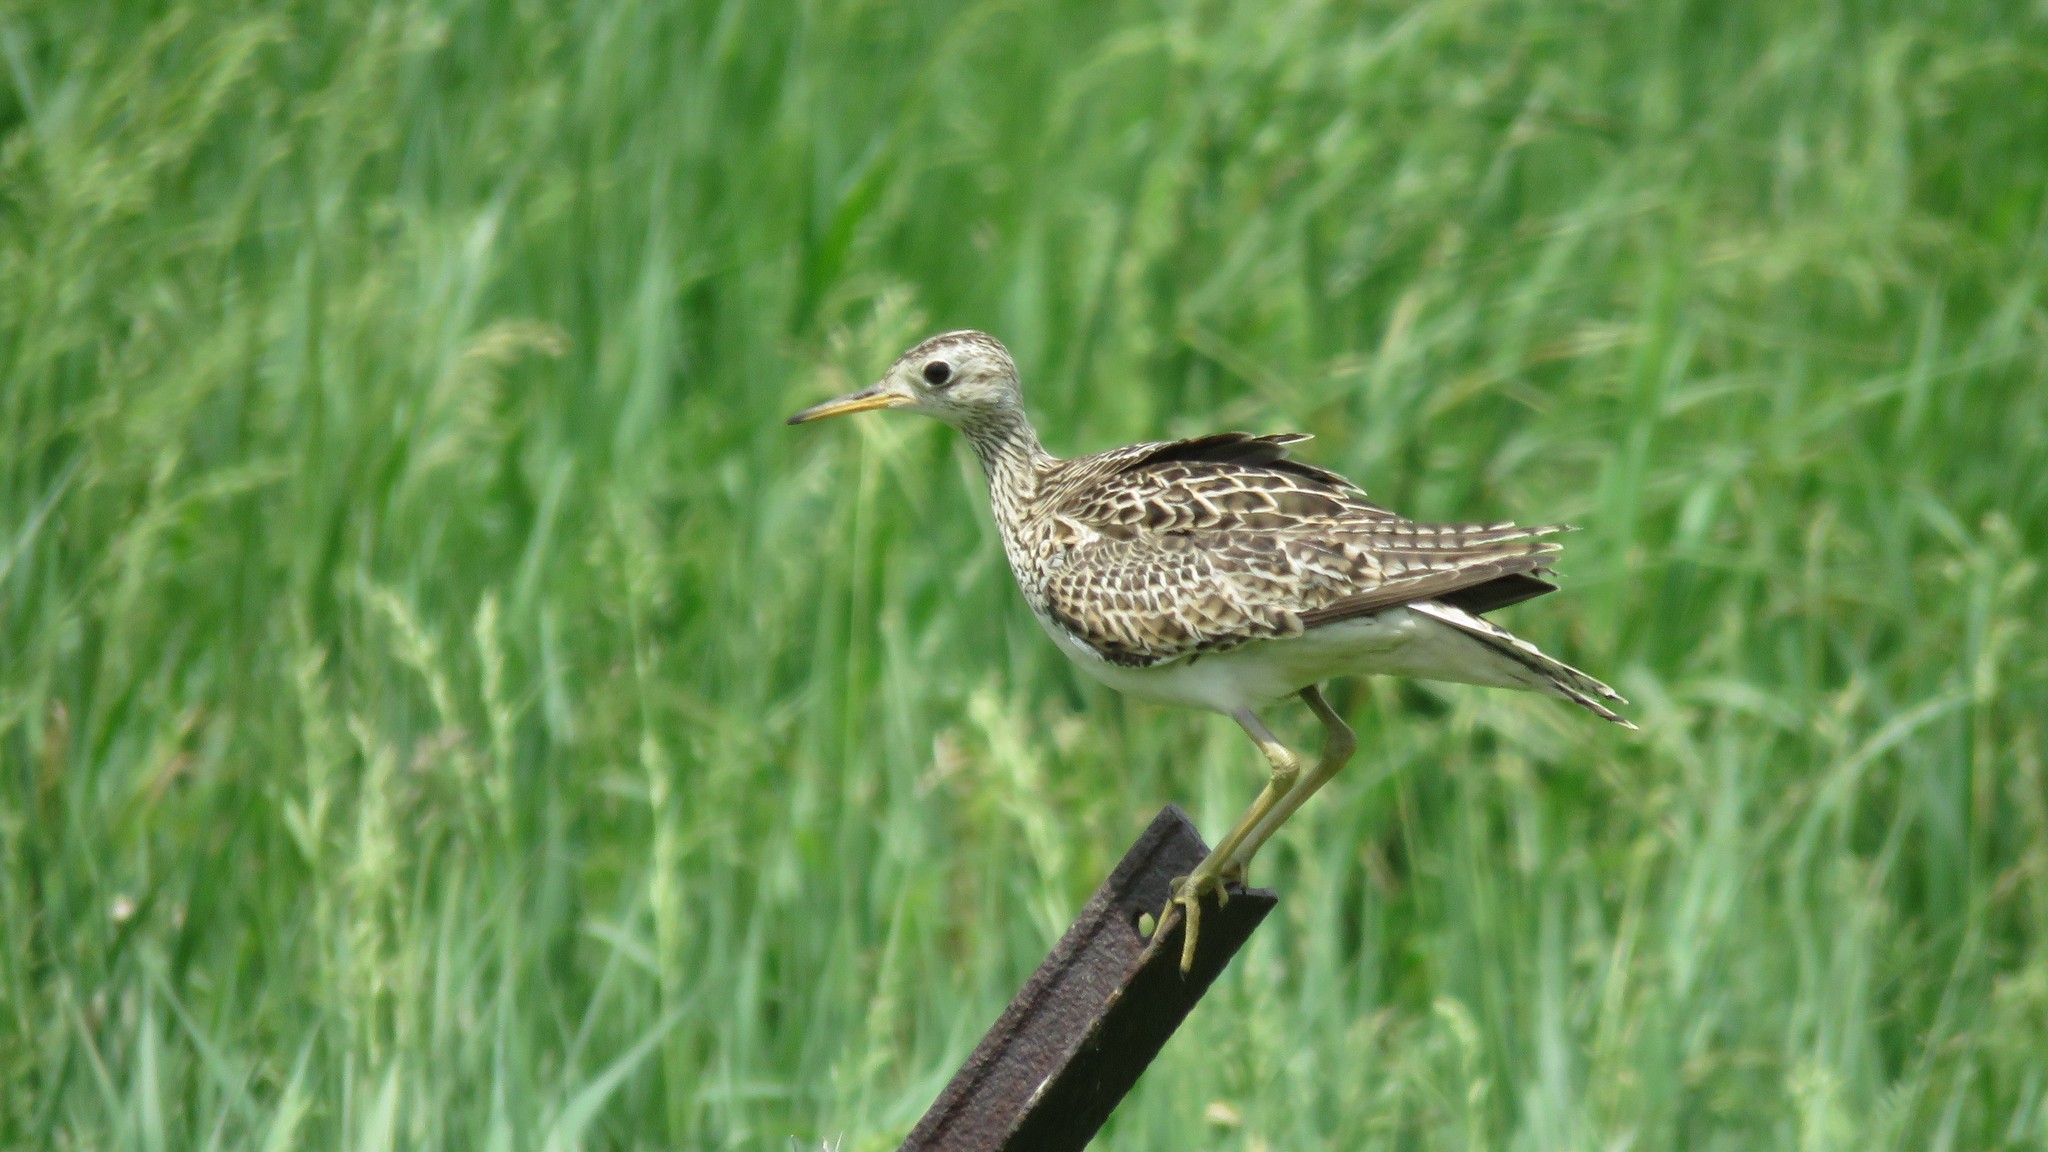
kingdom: Animalia
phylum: Chordata
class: Aves
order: Charadriiformes
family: Scolopacidae
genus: Bartramia
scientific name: Bartramia longicauda
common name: Upland sandpiper
